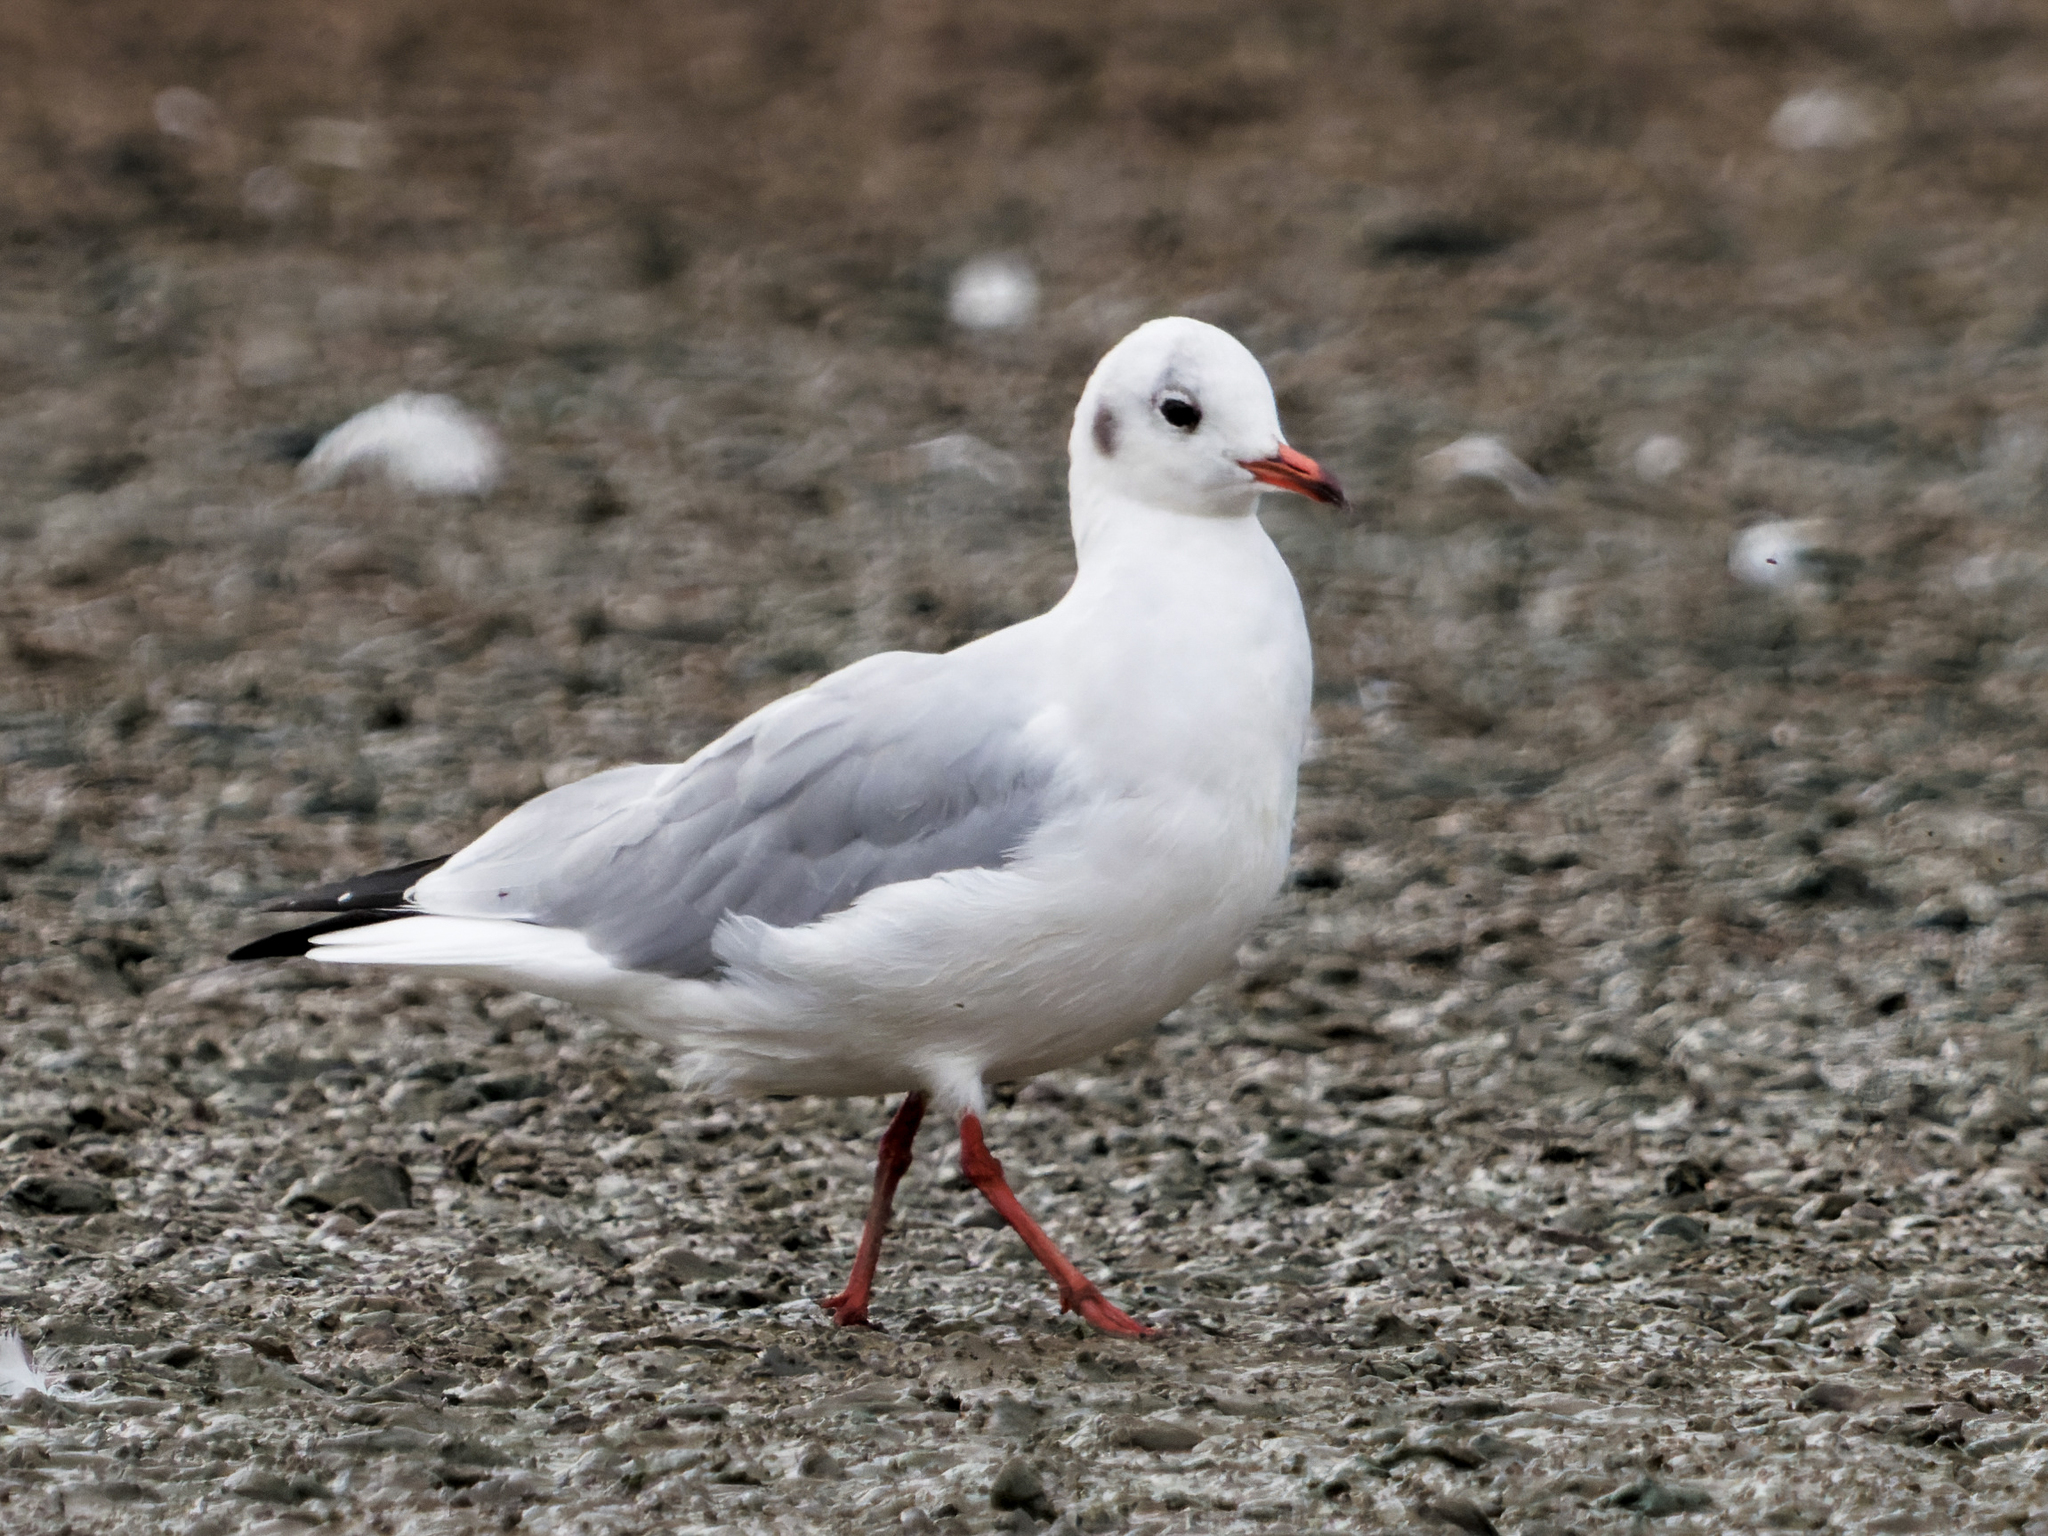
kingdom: Animalia
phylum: Chordata
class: Aves
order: Charadriiformes
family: Laridae
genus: Chroicocephalus
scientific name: Chroicocephalus ridibundus
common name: Black-headed gull
